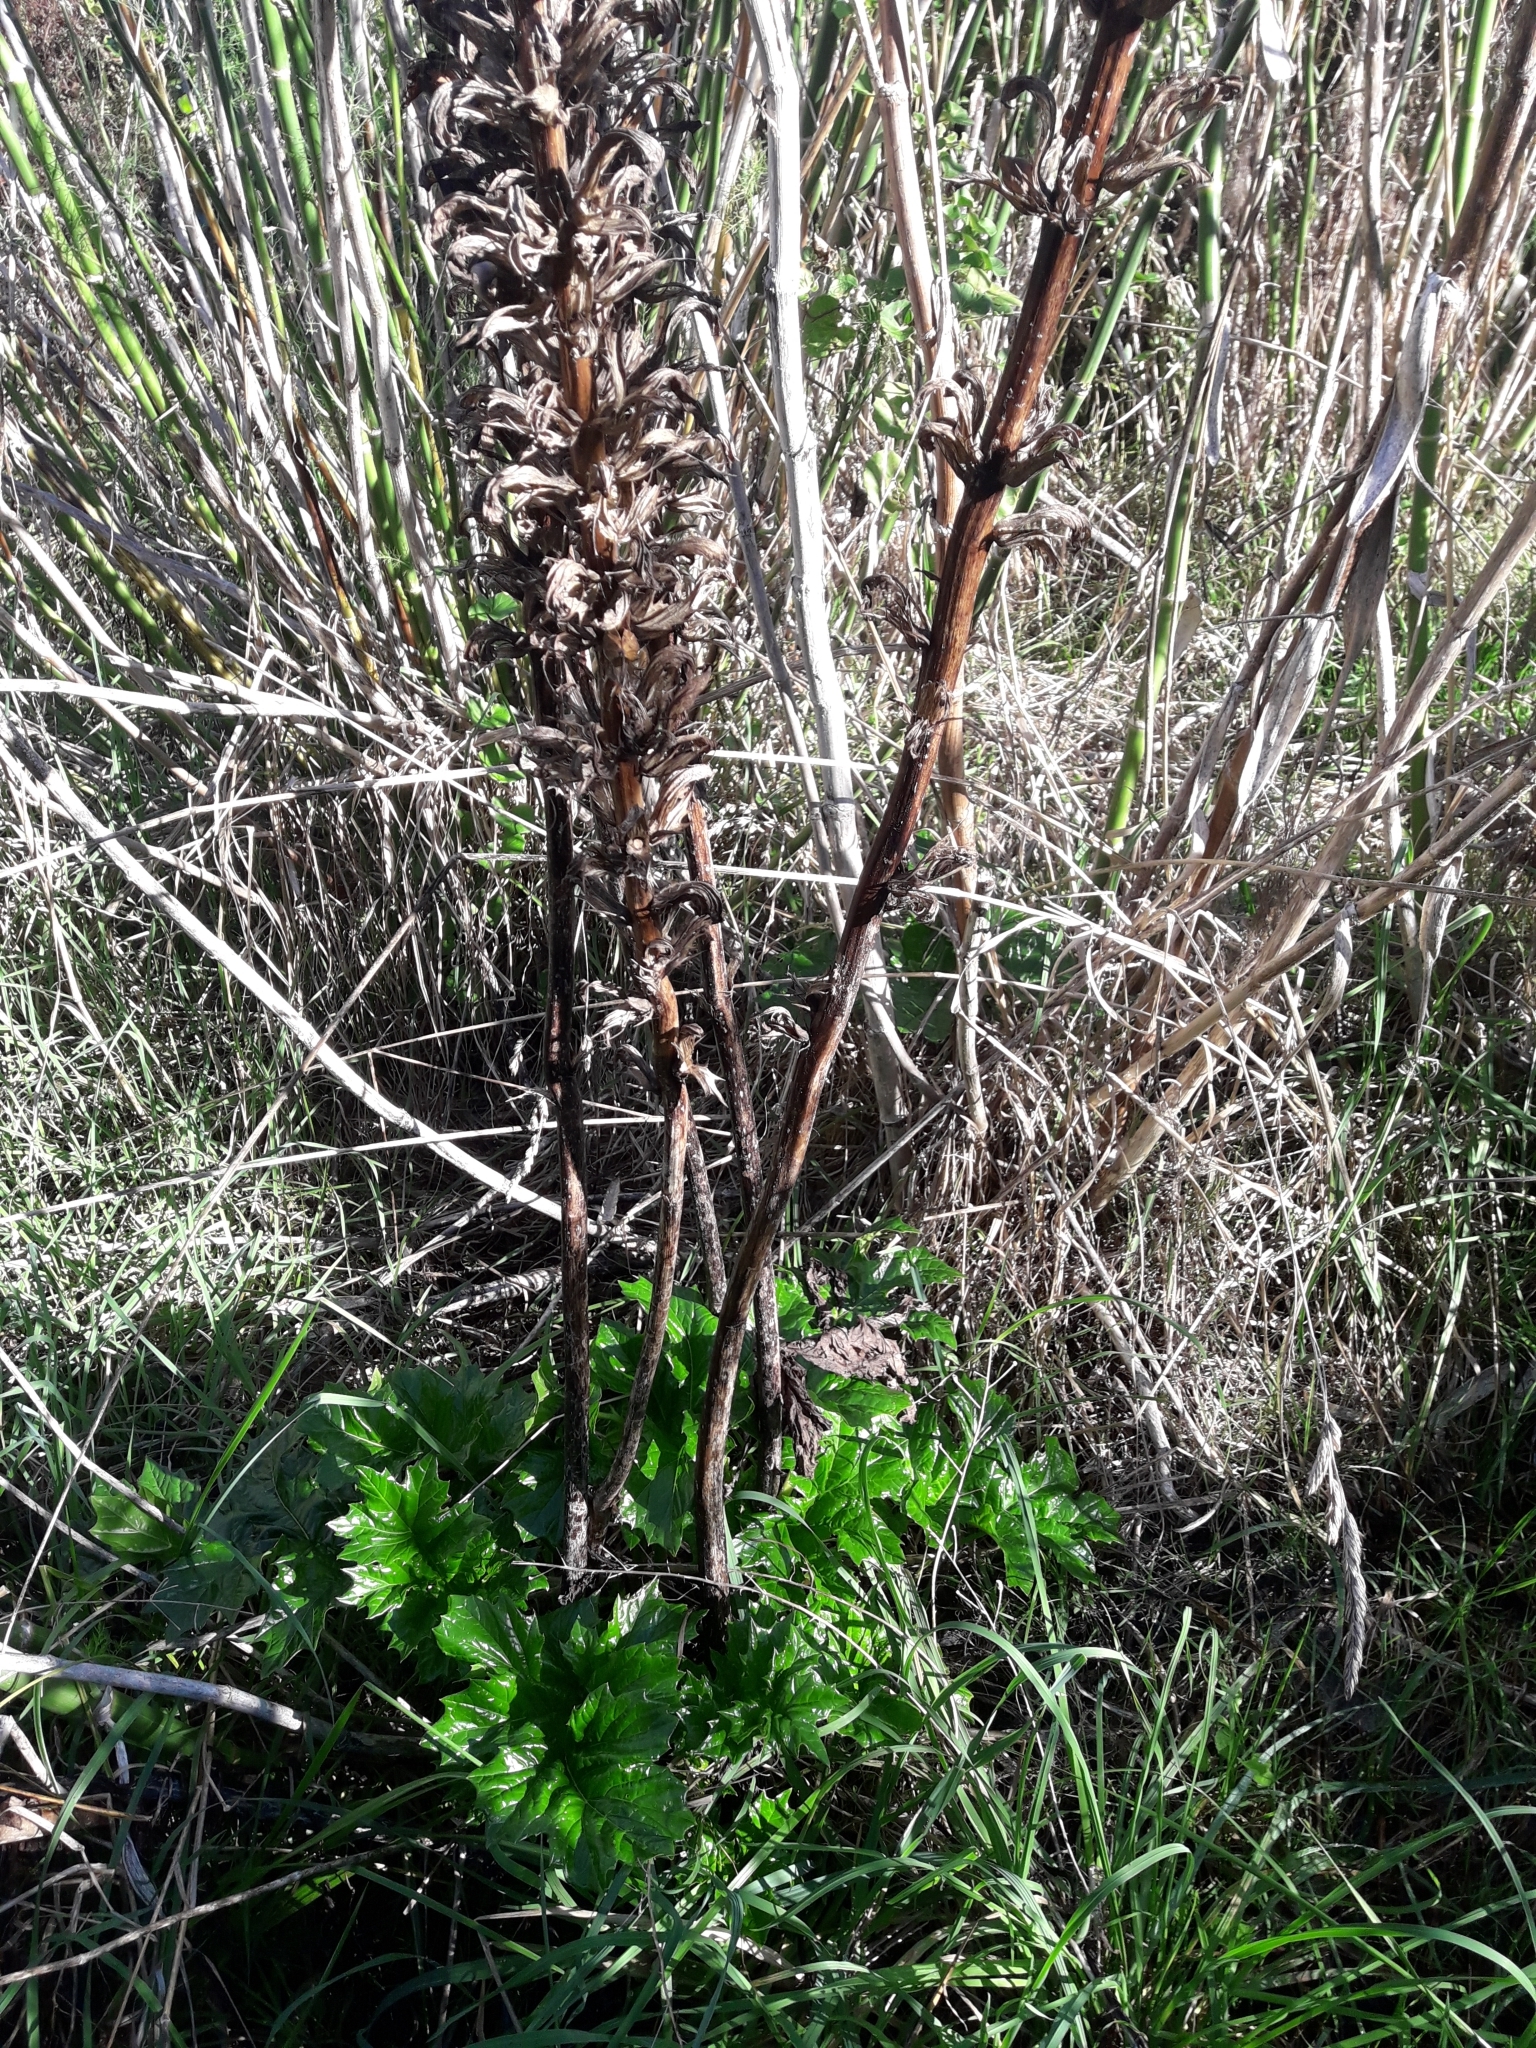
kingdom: Plantae
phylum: Tracheophyta
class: Magnoliopsida
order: Lamiales
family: Acanthaceae
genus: Acanthus
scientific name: Acanthus mollis
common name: Bear's-breech
